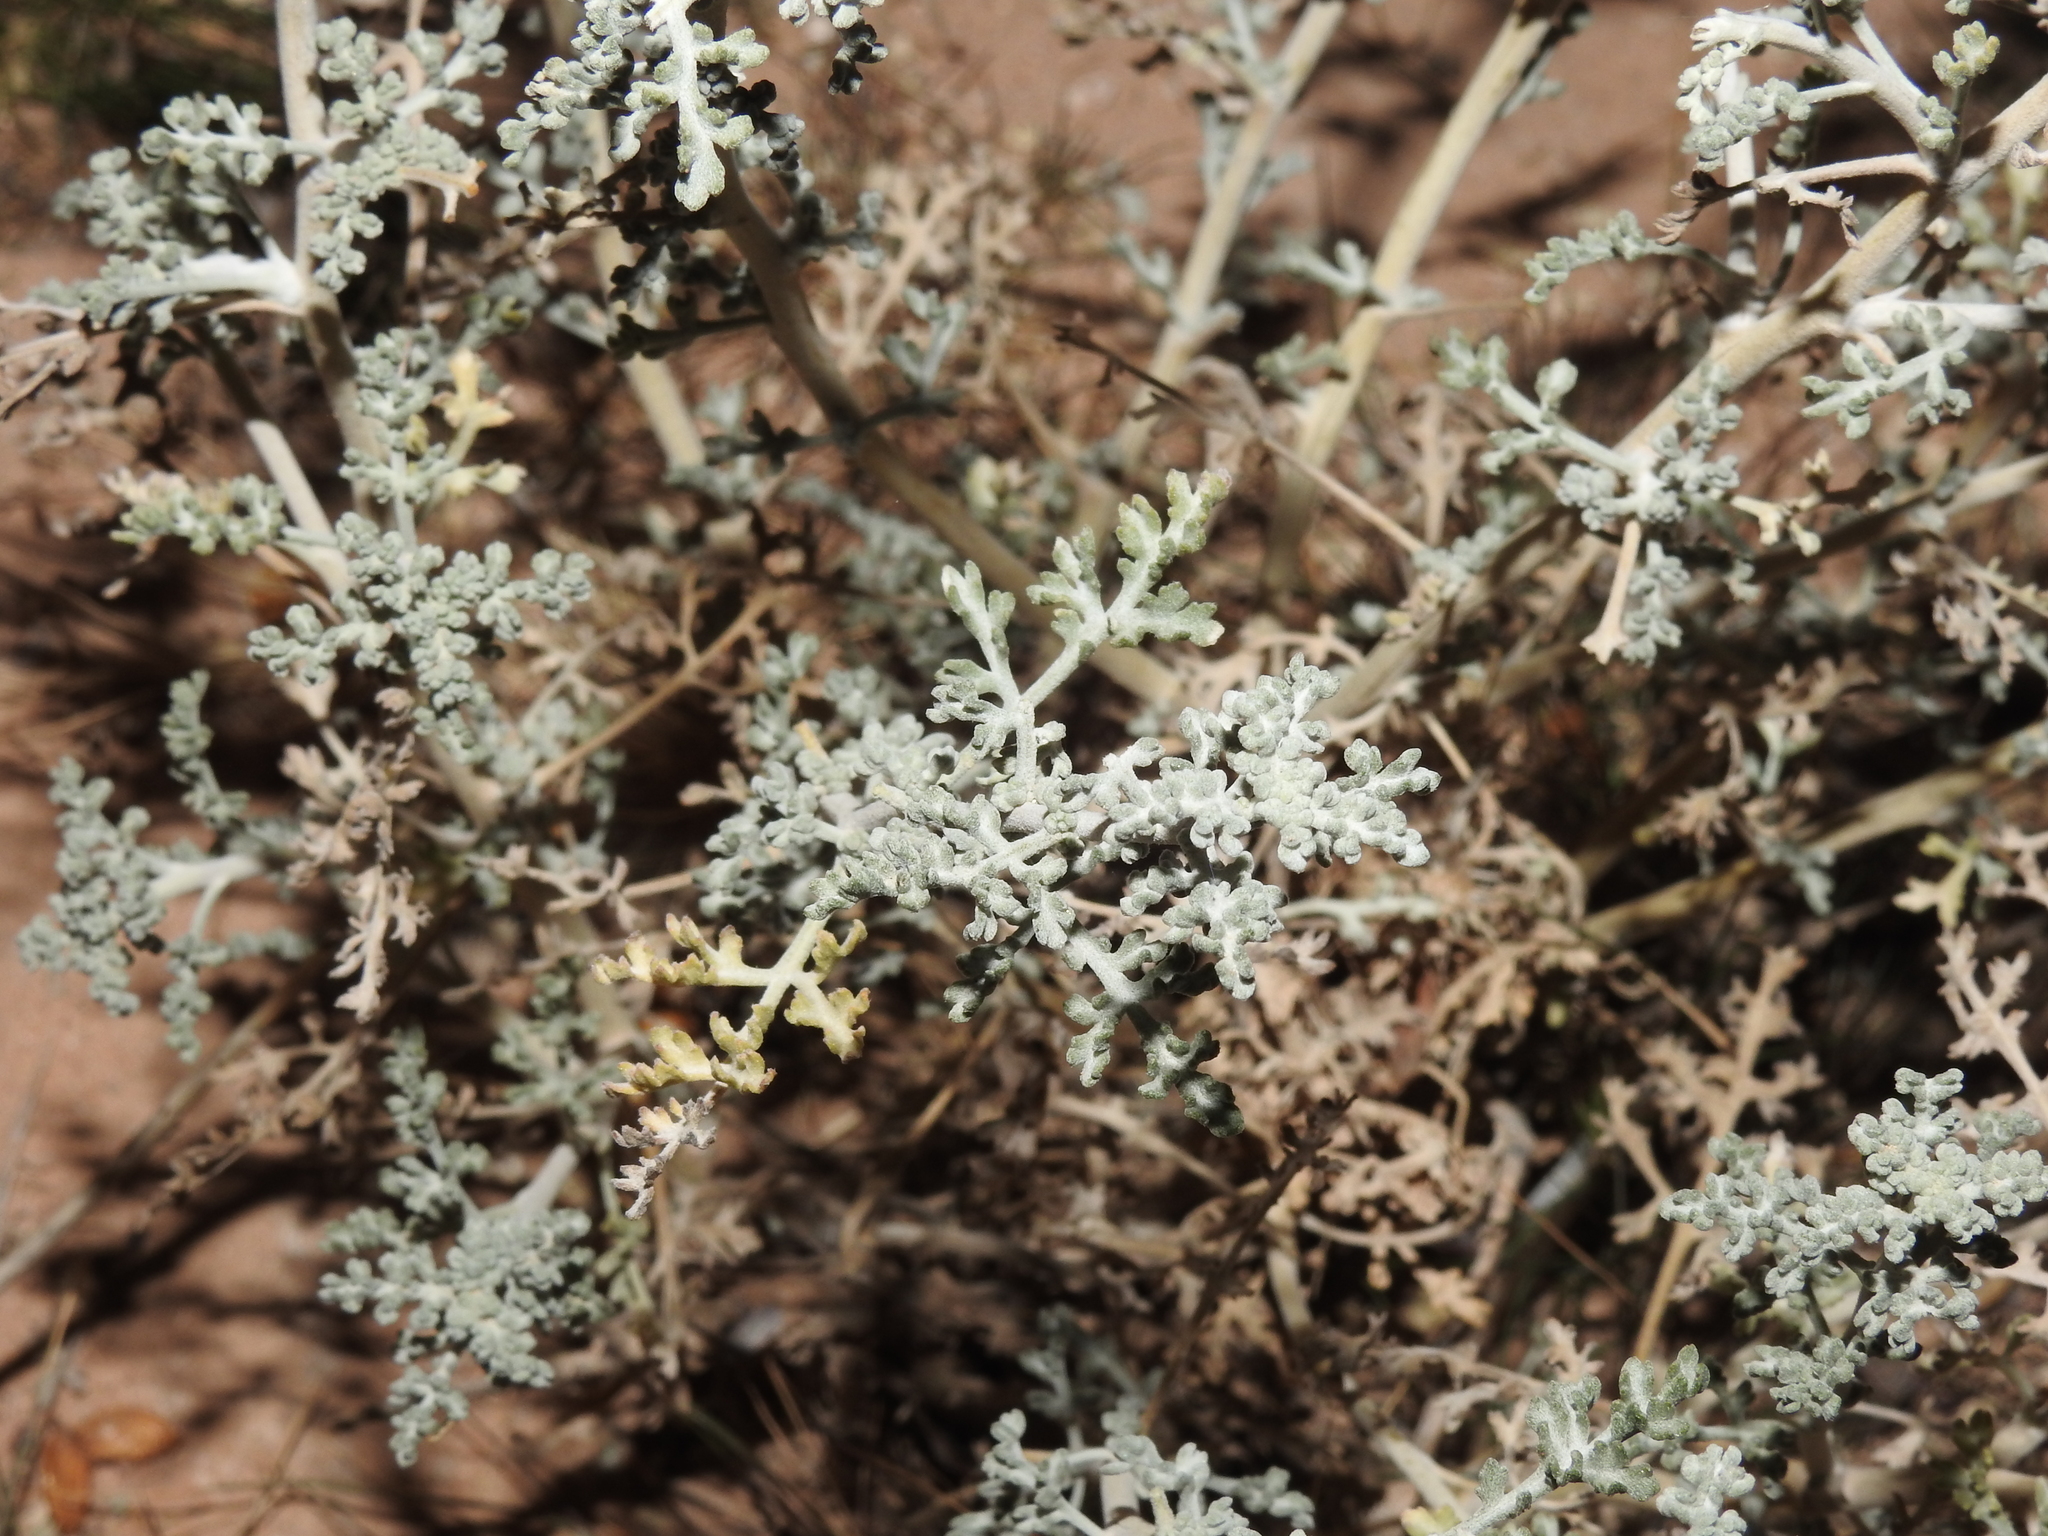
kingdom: Plantae
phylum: Tracheophyta
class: Magnoliopsida
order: Asterales
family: Asteraceae
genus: Ambrosia
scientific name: Ambrosia dumosa
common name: Bur-sage
